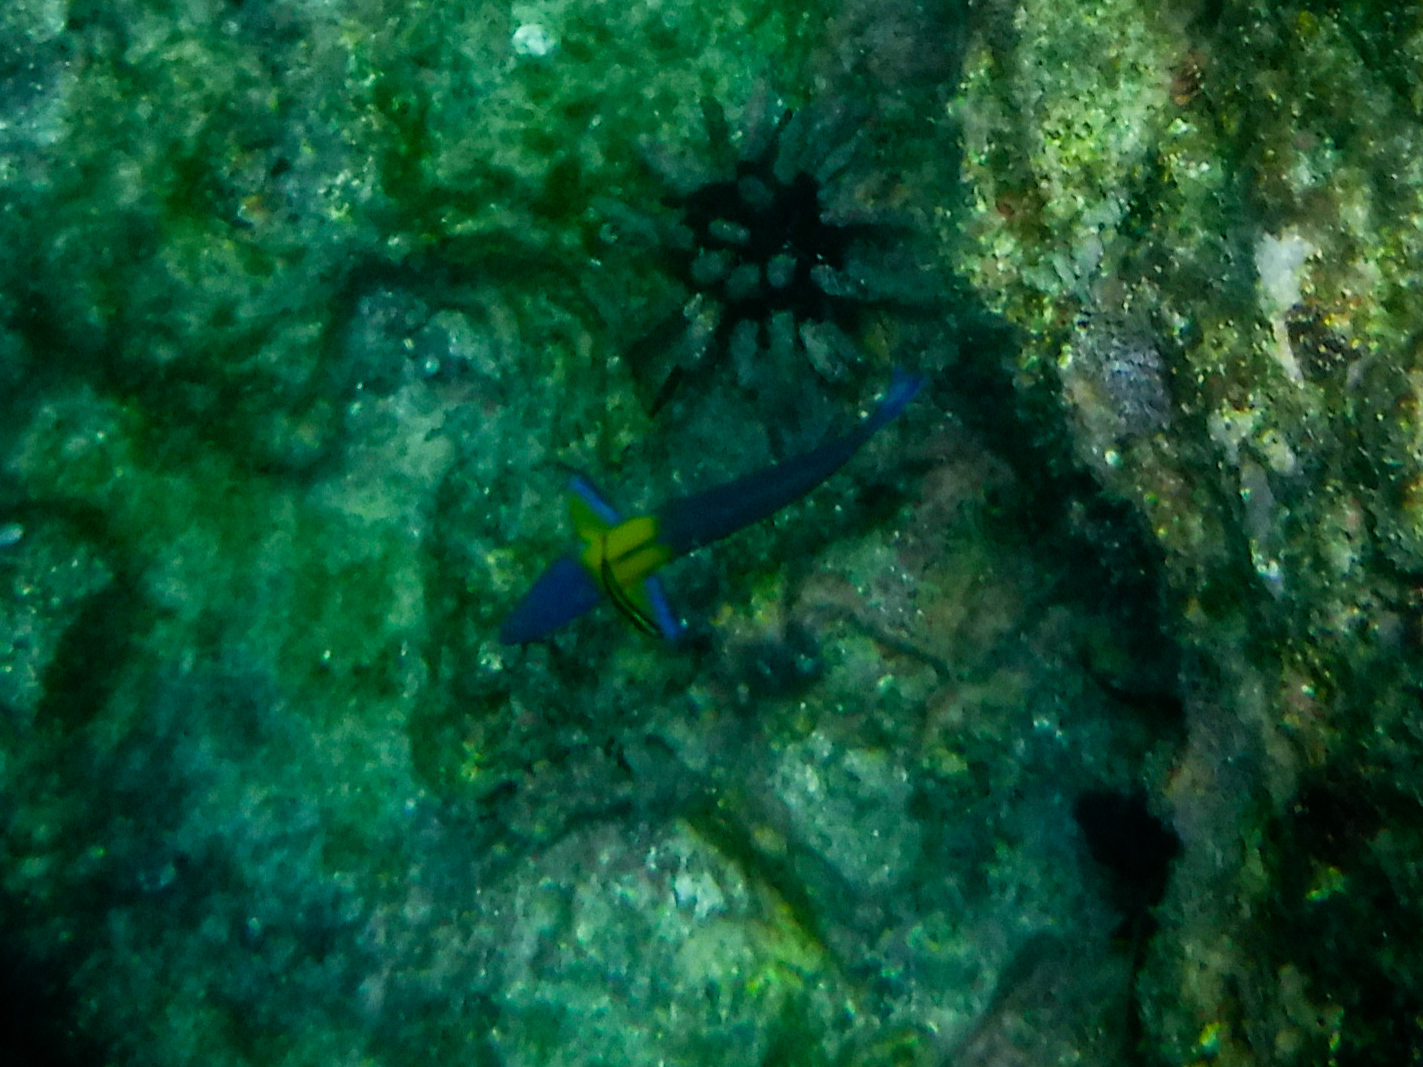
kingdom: Animalia
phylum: Chordata
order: Perciformes
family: Labridae
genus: Thalassoma
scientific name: Thalassoma lucasanum
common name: Cortez rainbow wrasse
